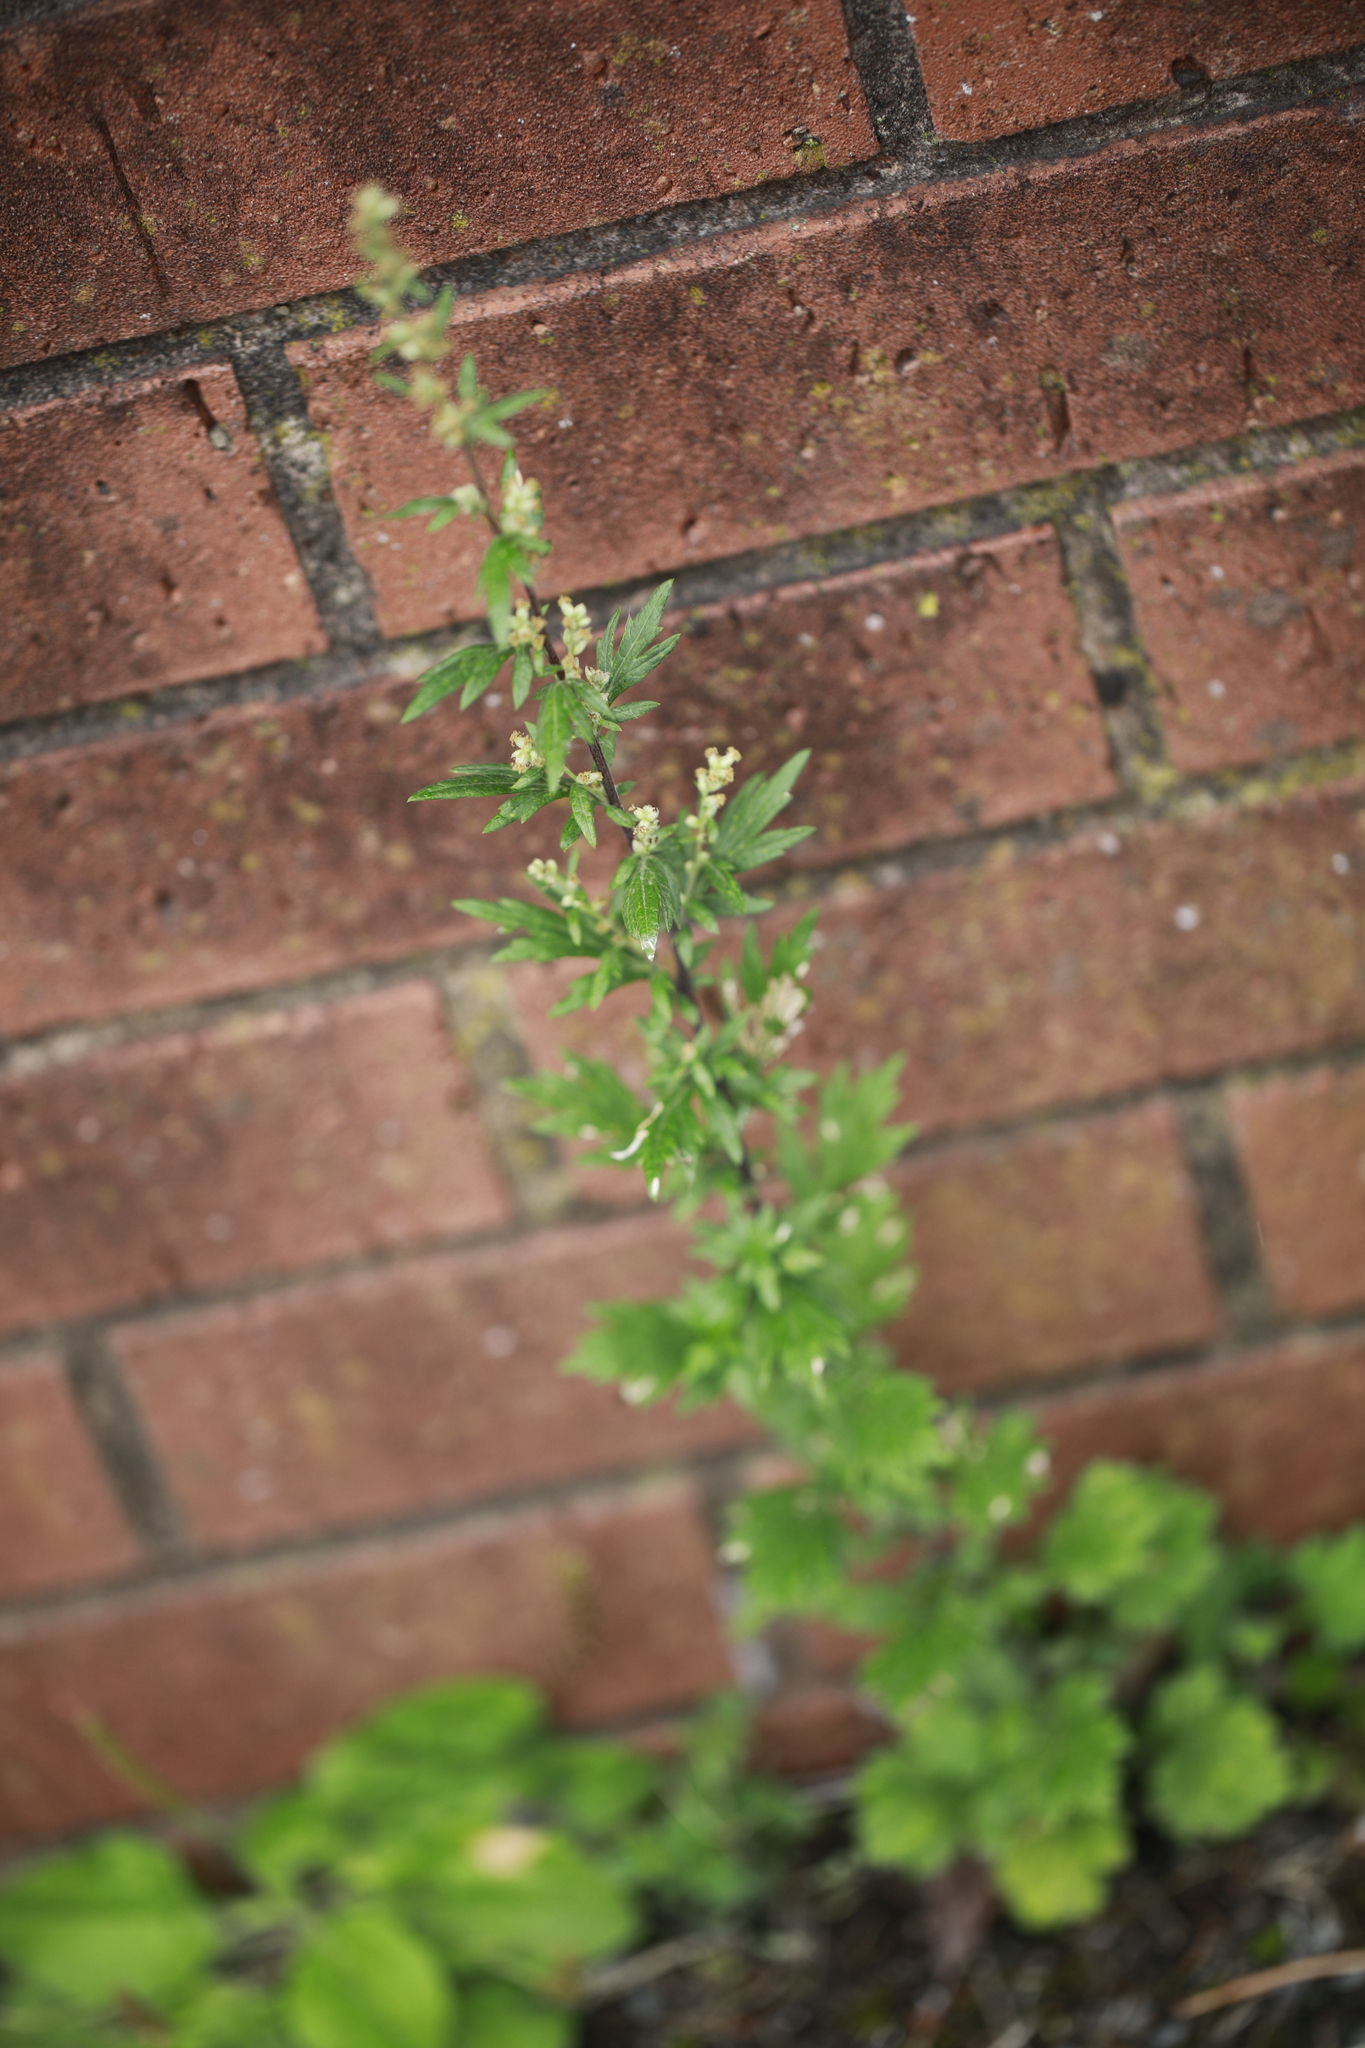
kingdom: Plantae
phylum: Tracheophyta
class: Magnoliopsida
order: Asterales
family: Asteraceae
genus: Artemisia
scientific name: Artemisia vulgaris
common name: Mugwort
